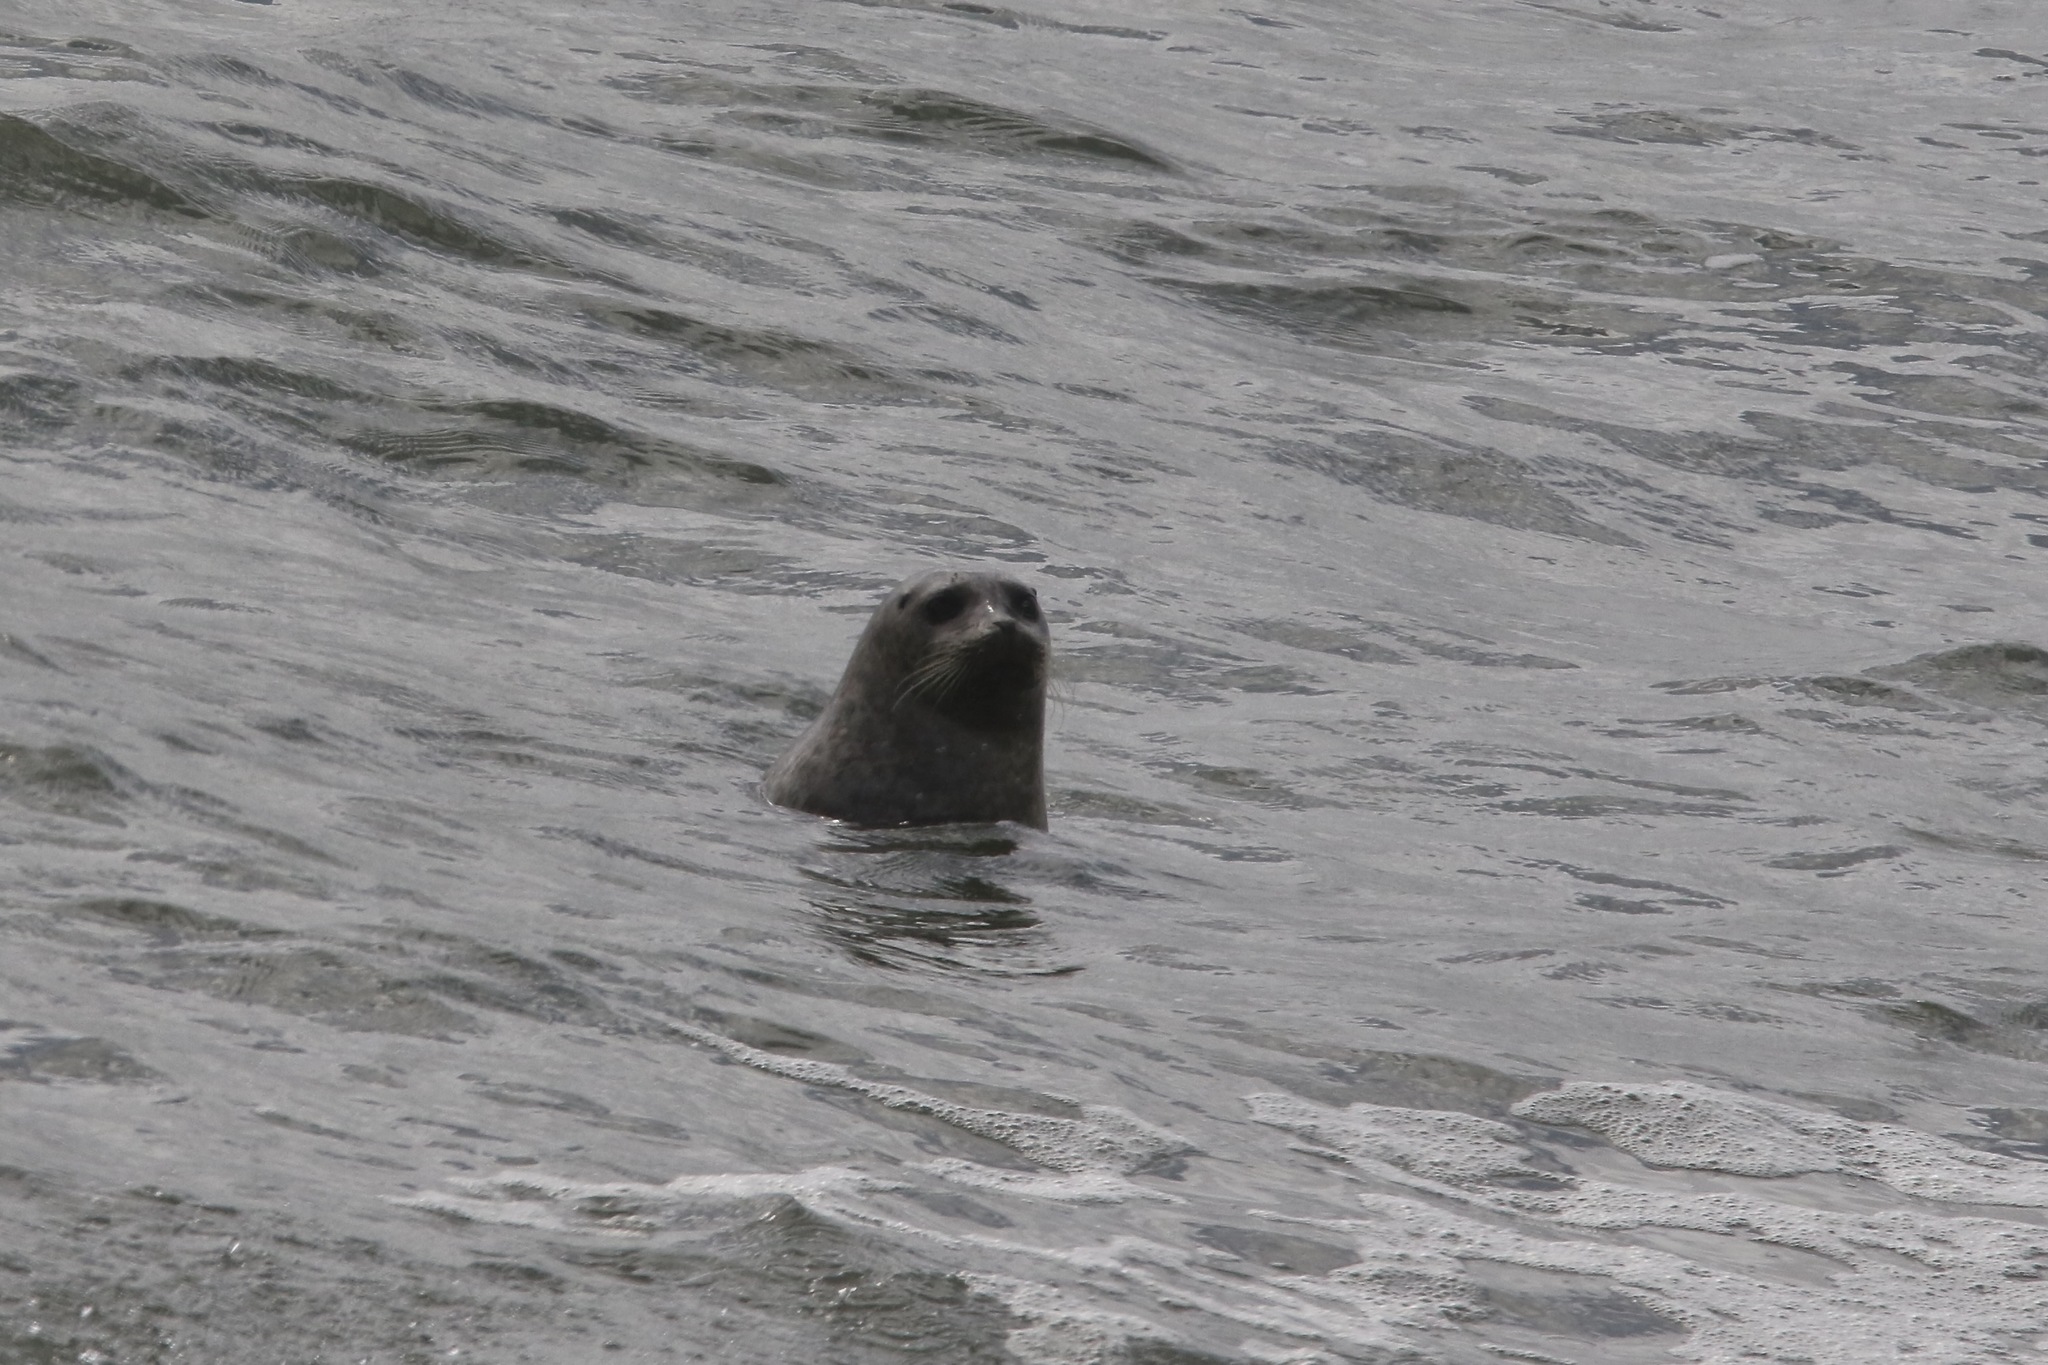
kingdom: Animalia
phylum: Chordata
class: Mammalia
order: Carnivora
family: Phocidae
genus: Phoca
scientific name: Phoca vitulina
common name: Harbor seal
